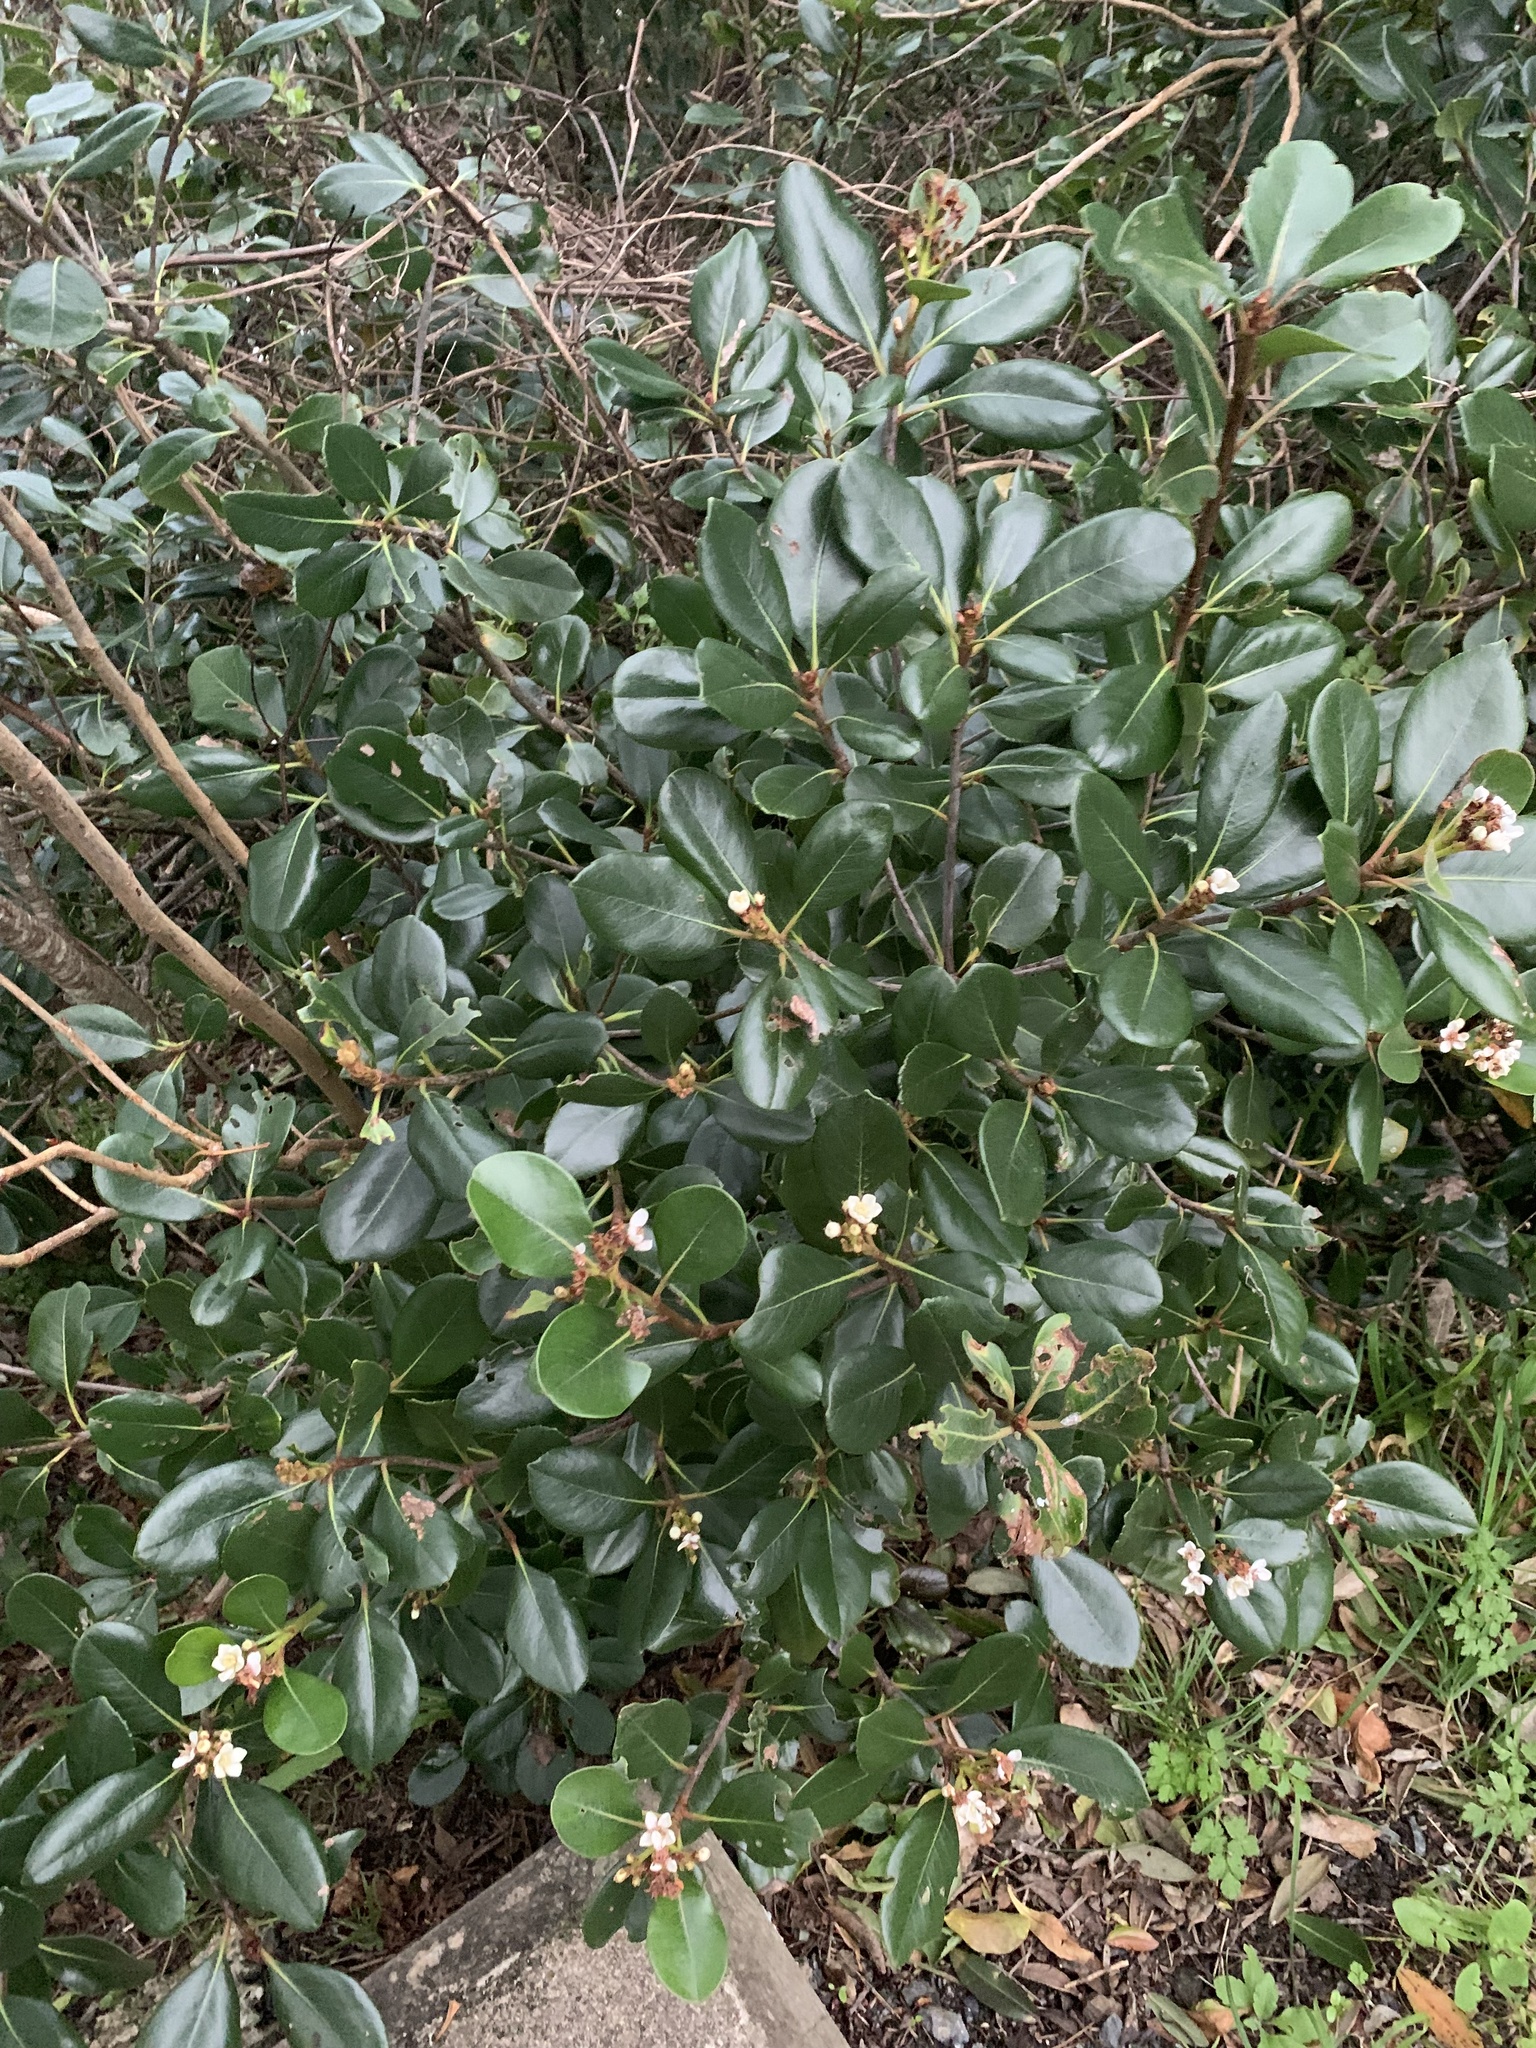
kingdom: Plantae
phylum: Tracheophyta
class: Magnoliopsida
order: Rosales
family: Rosaceae
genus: Rhaphiolepis
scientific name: Rhaphiolepis indica
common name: India-hawthorn
